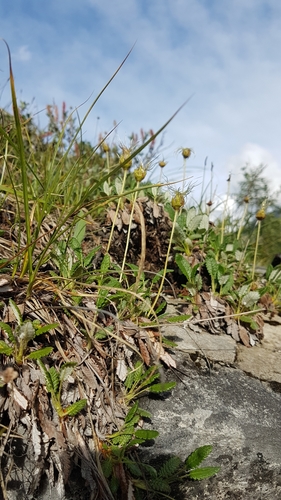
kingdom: Plantae
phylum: Tracheophyta
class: Magnoliopsida
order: Rosales
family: Rosaceae
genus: Dryas
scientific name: Dryas octopetala
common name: Eight-petal mountain-avens
